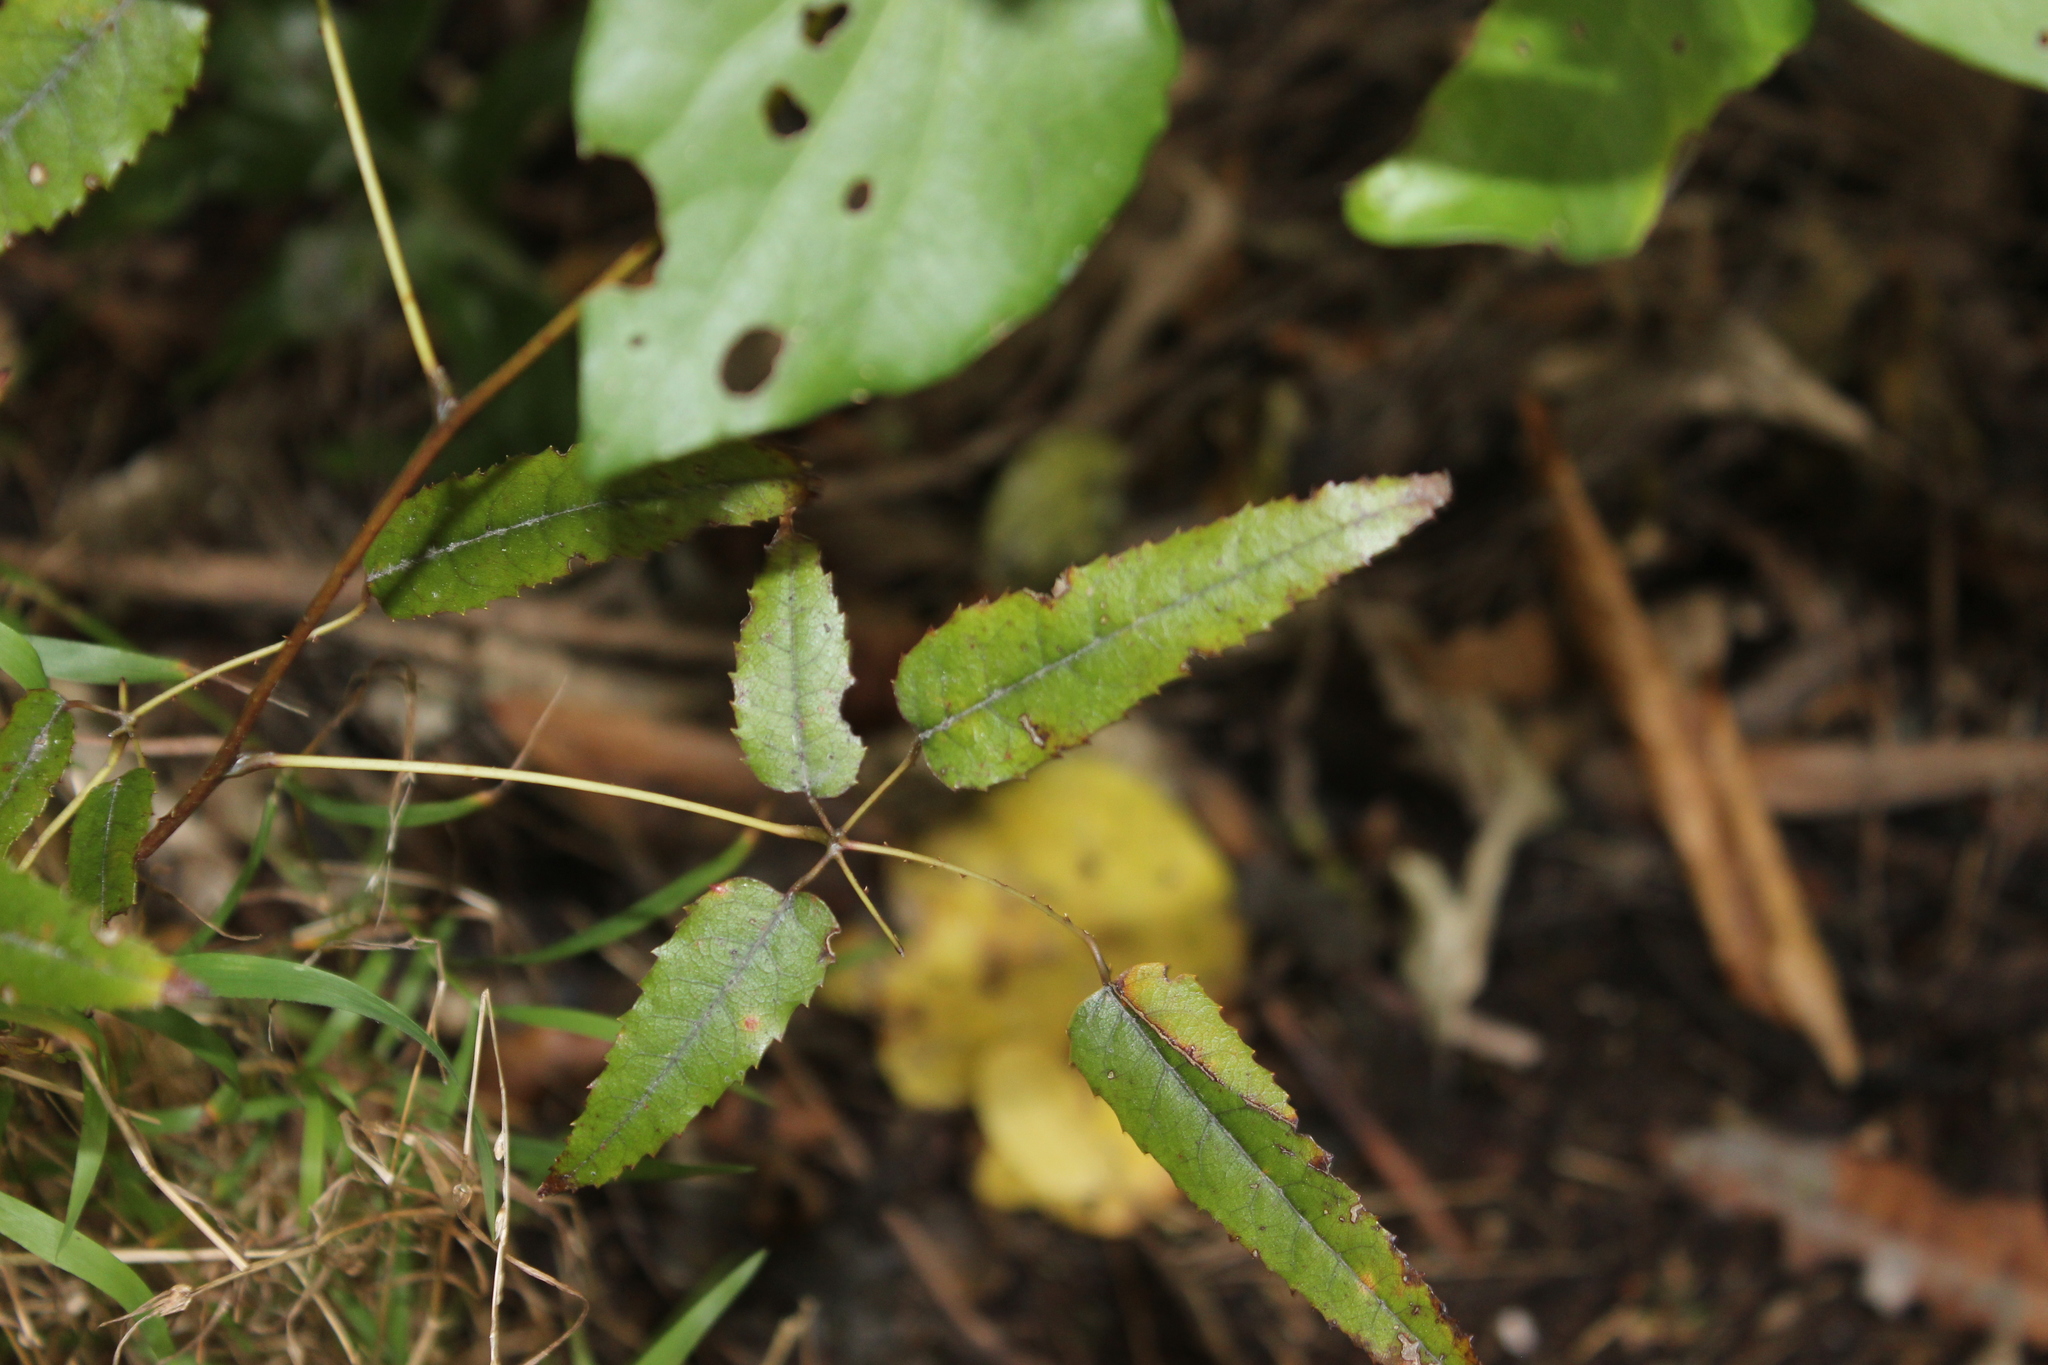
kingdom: Plantae
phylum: Tracheophyta
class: Magnoliopsida
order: Rosales
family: Rosaceae
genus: Rubus
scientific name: Rubus cissoides
